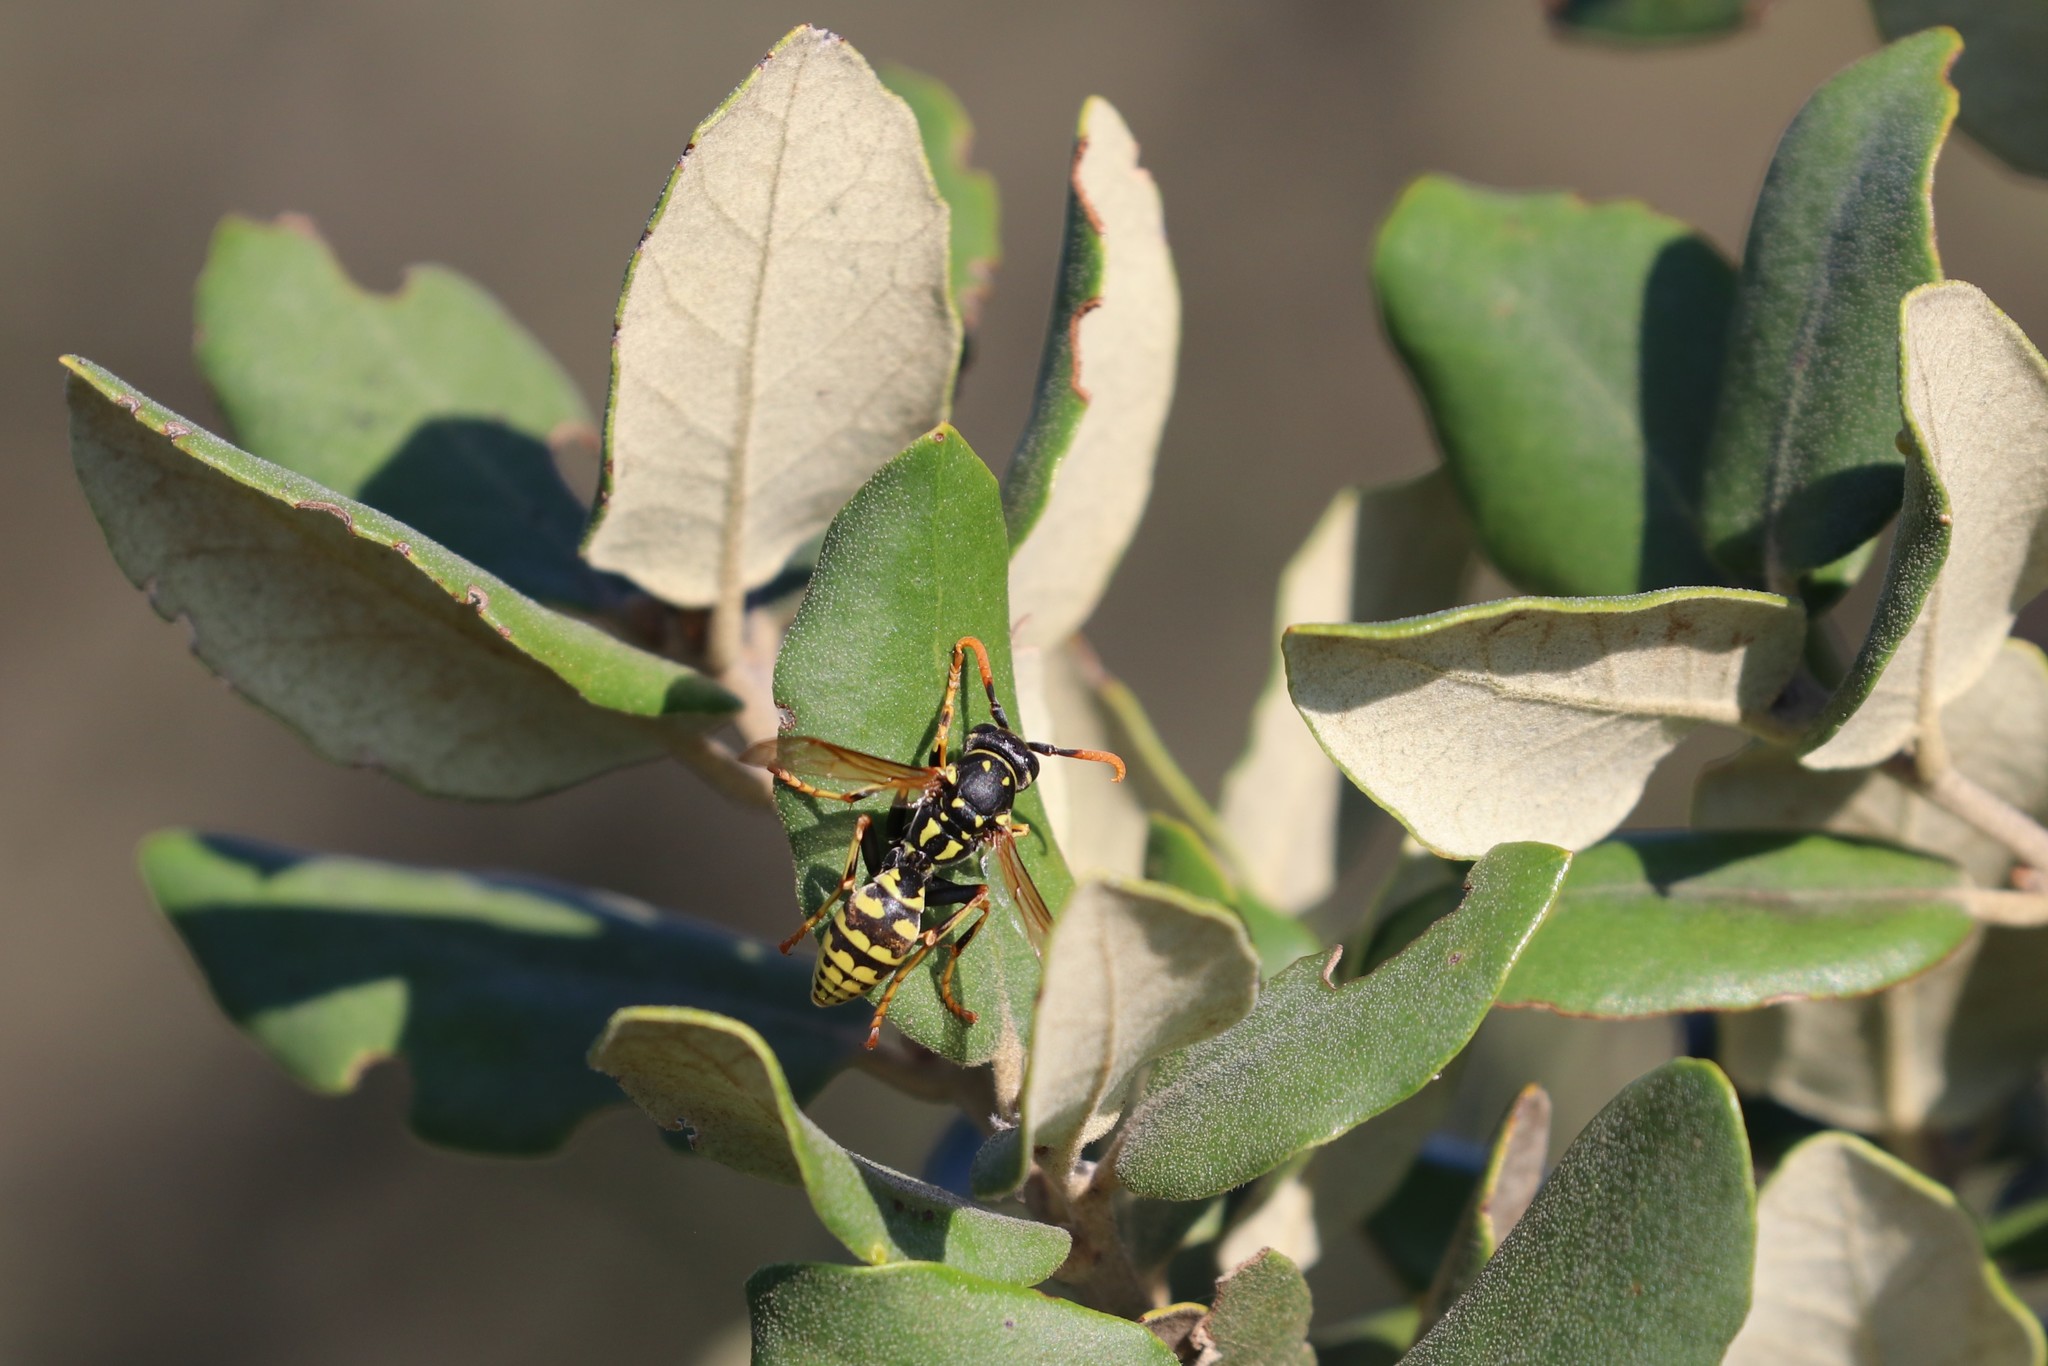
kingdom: Animalia
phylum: Arthropoda
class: Insecta
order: Hymenoptera
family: Eumenidae
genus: Polistes
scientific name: Polistes
